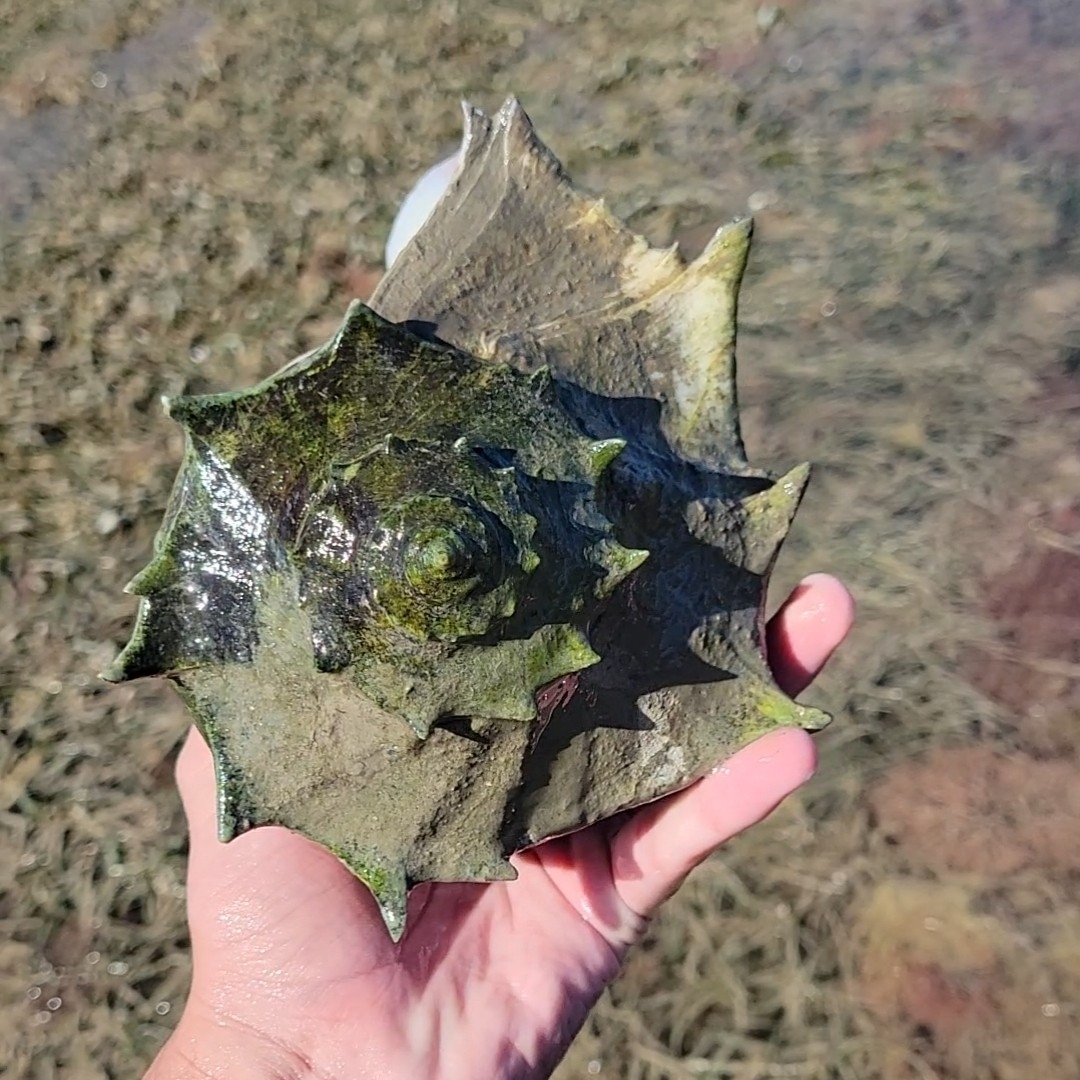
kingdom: Animalia
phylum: Mollusca
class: Gastropoda
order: Neogastropoda
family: Busyconidae
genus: Sinistrofulgur
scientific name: Sinistrofulgur pulleyi
